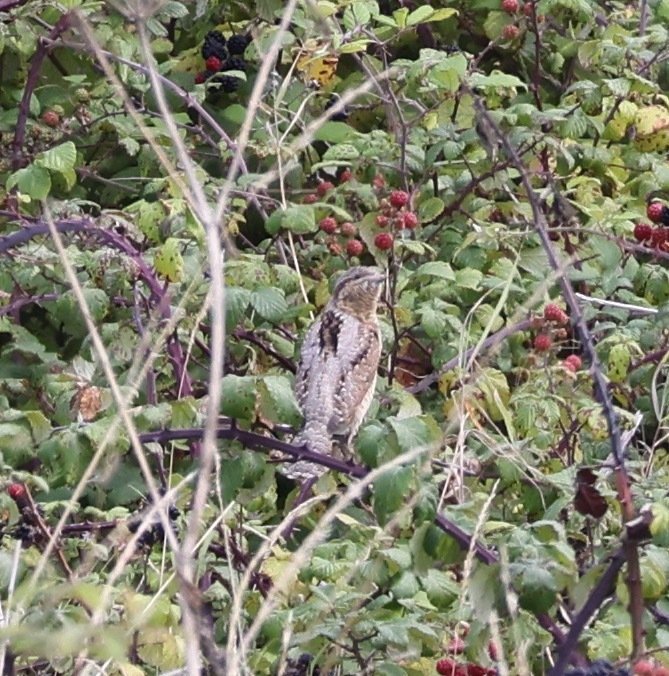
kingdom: Animalia
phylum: Chordata
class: Aves
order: Piciformes
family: Picidae
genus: Jynx
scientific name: Jynx torquilla
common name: Eurasian wryneck
